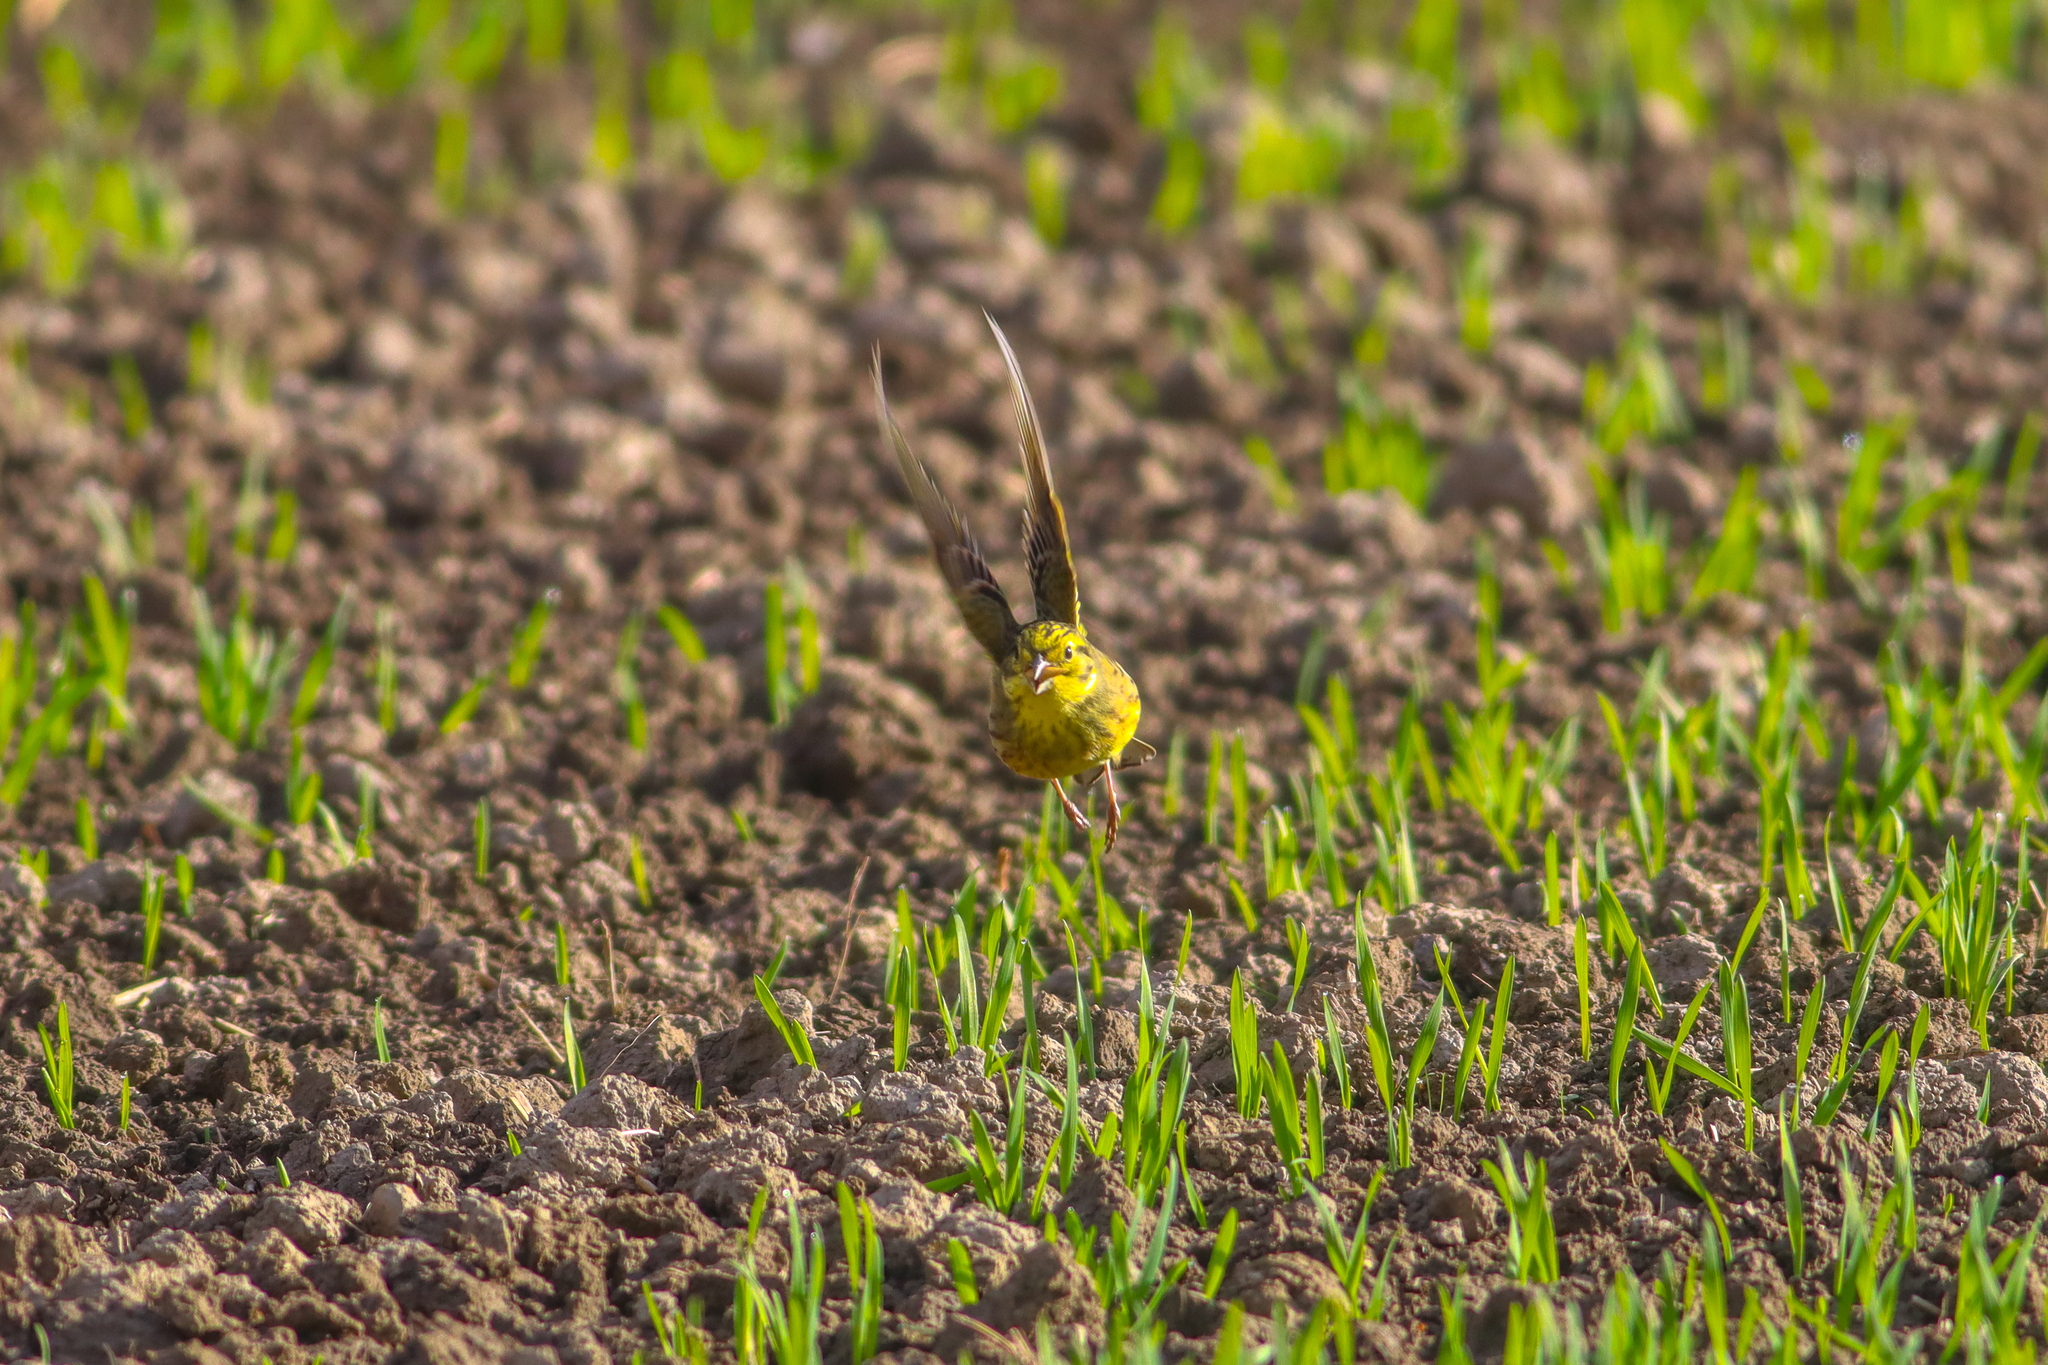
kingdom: Animalia
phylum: Chordata
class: Aves
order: Passeriformes
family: Emberizidae
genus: Emberiza
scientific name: Emberiza citrinella
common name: Yellowhammer
